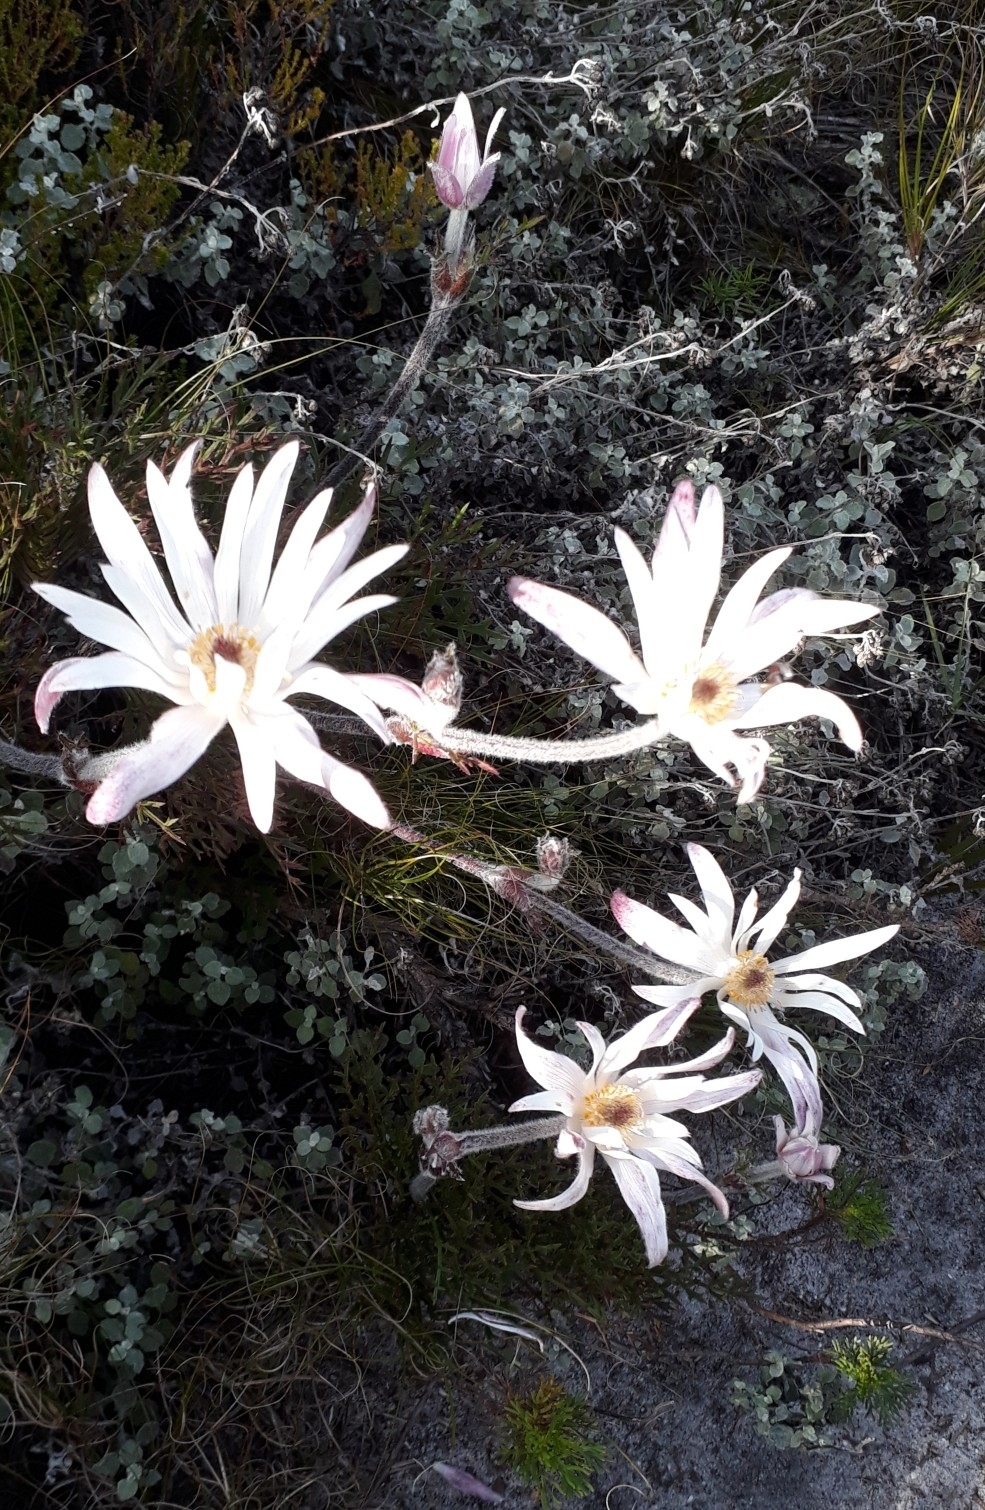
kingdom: Plantae
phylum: Tracheophyta
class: Magnoliopsida
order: Ranunculales
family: Ranunculaceae
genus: Knowltonia
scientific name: Knowltonia tenuifolia
